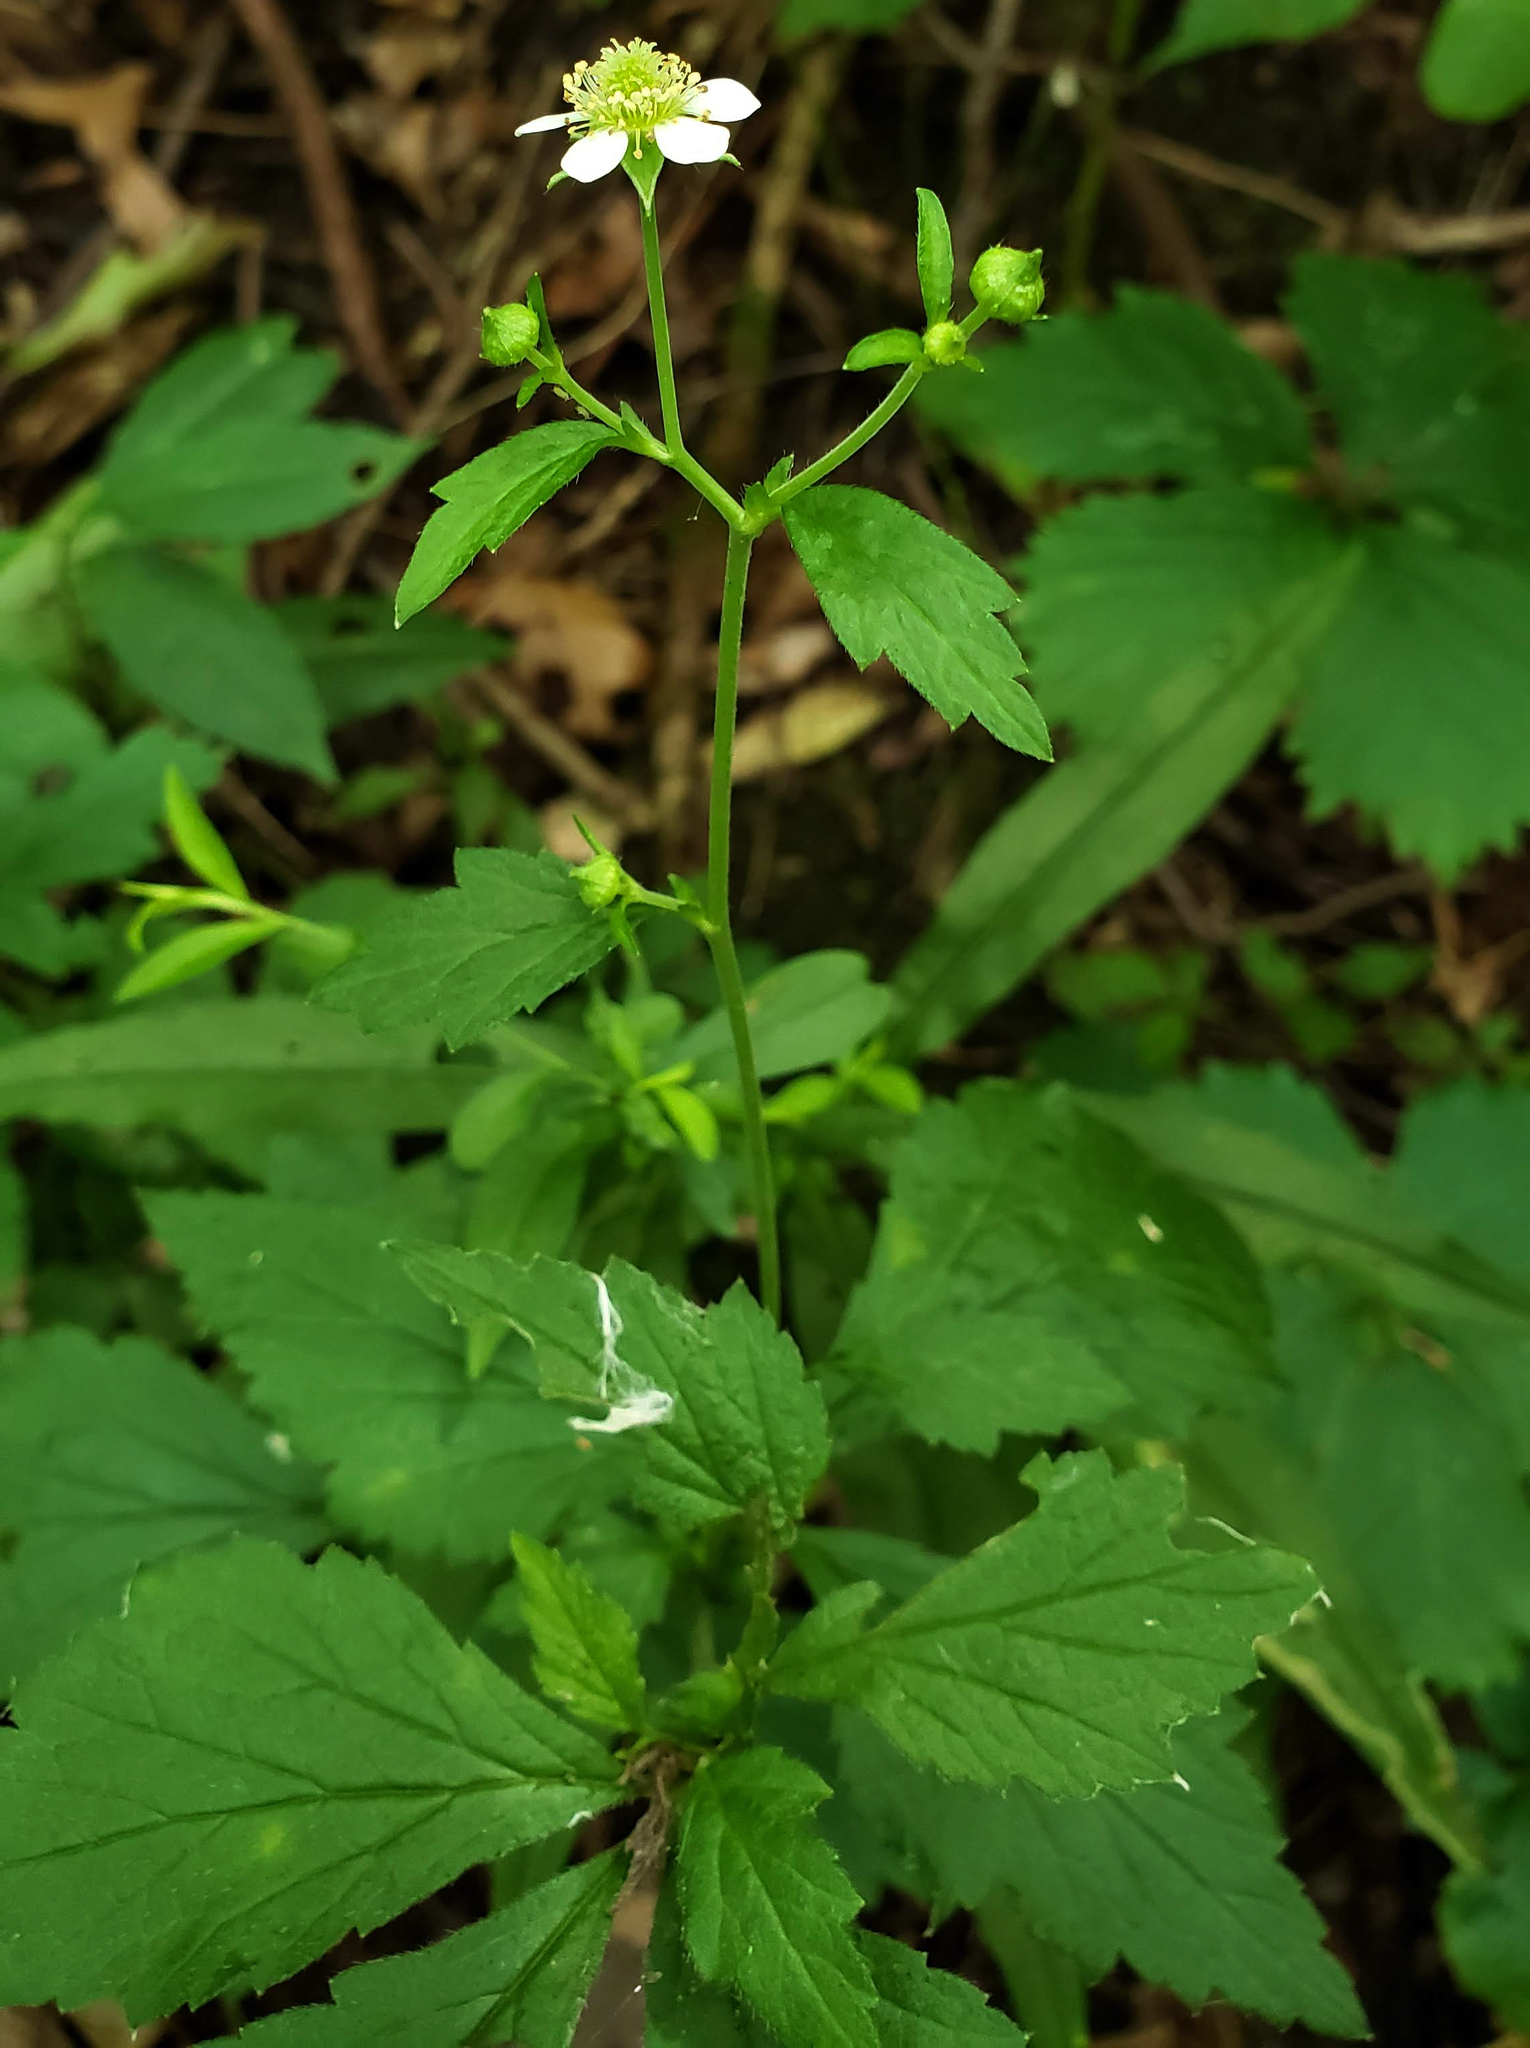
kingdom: Plantae
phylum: Tracheophyta
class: Magnoliopsida
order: Rosales
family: Rosaceae
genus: Geum
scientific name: Geum canadense
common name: White avens
